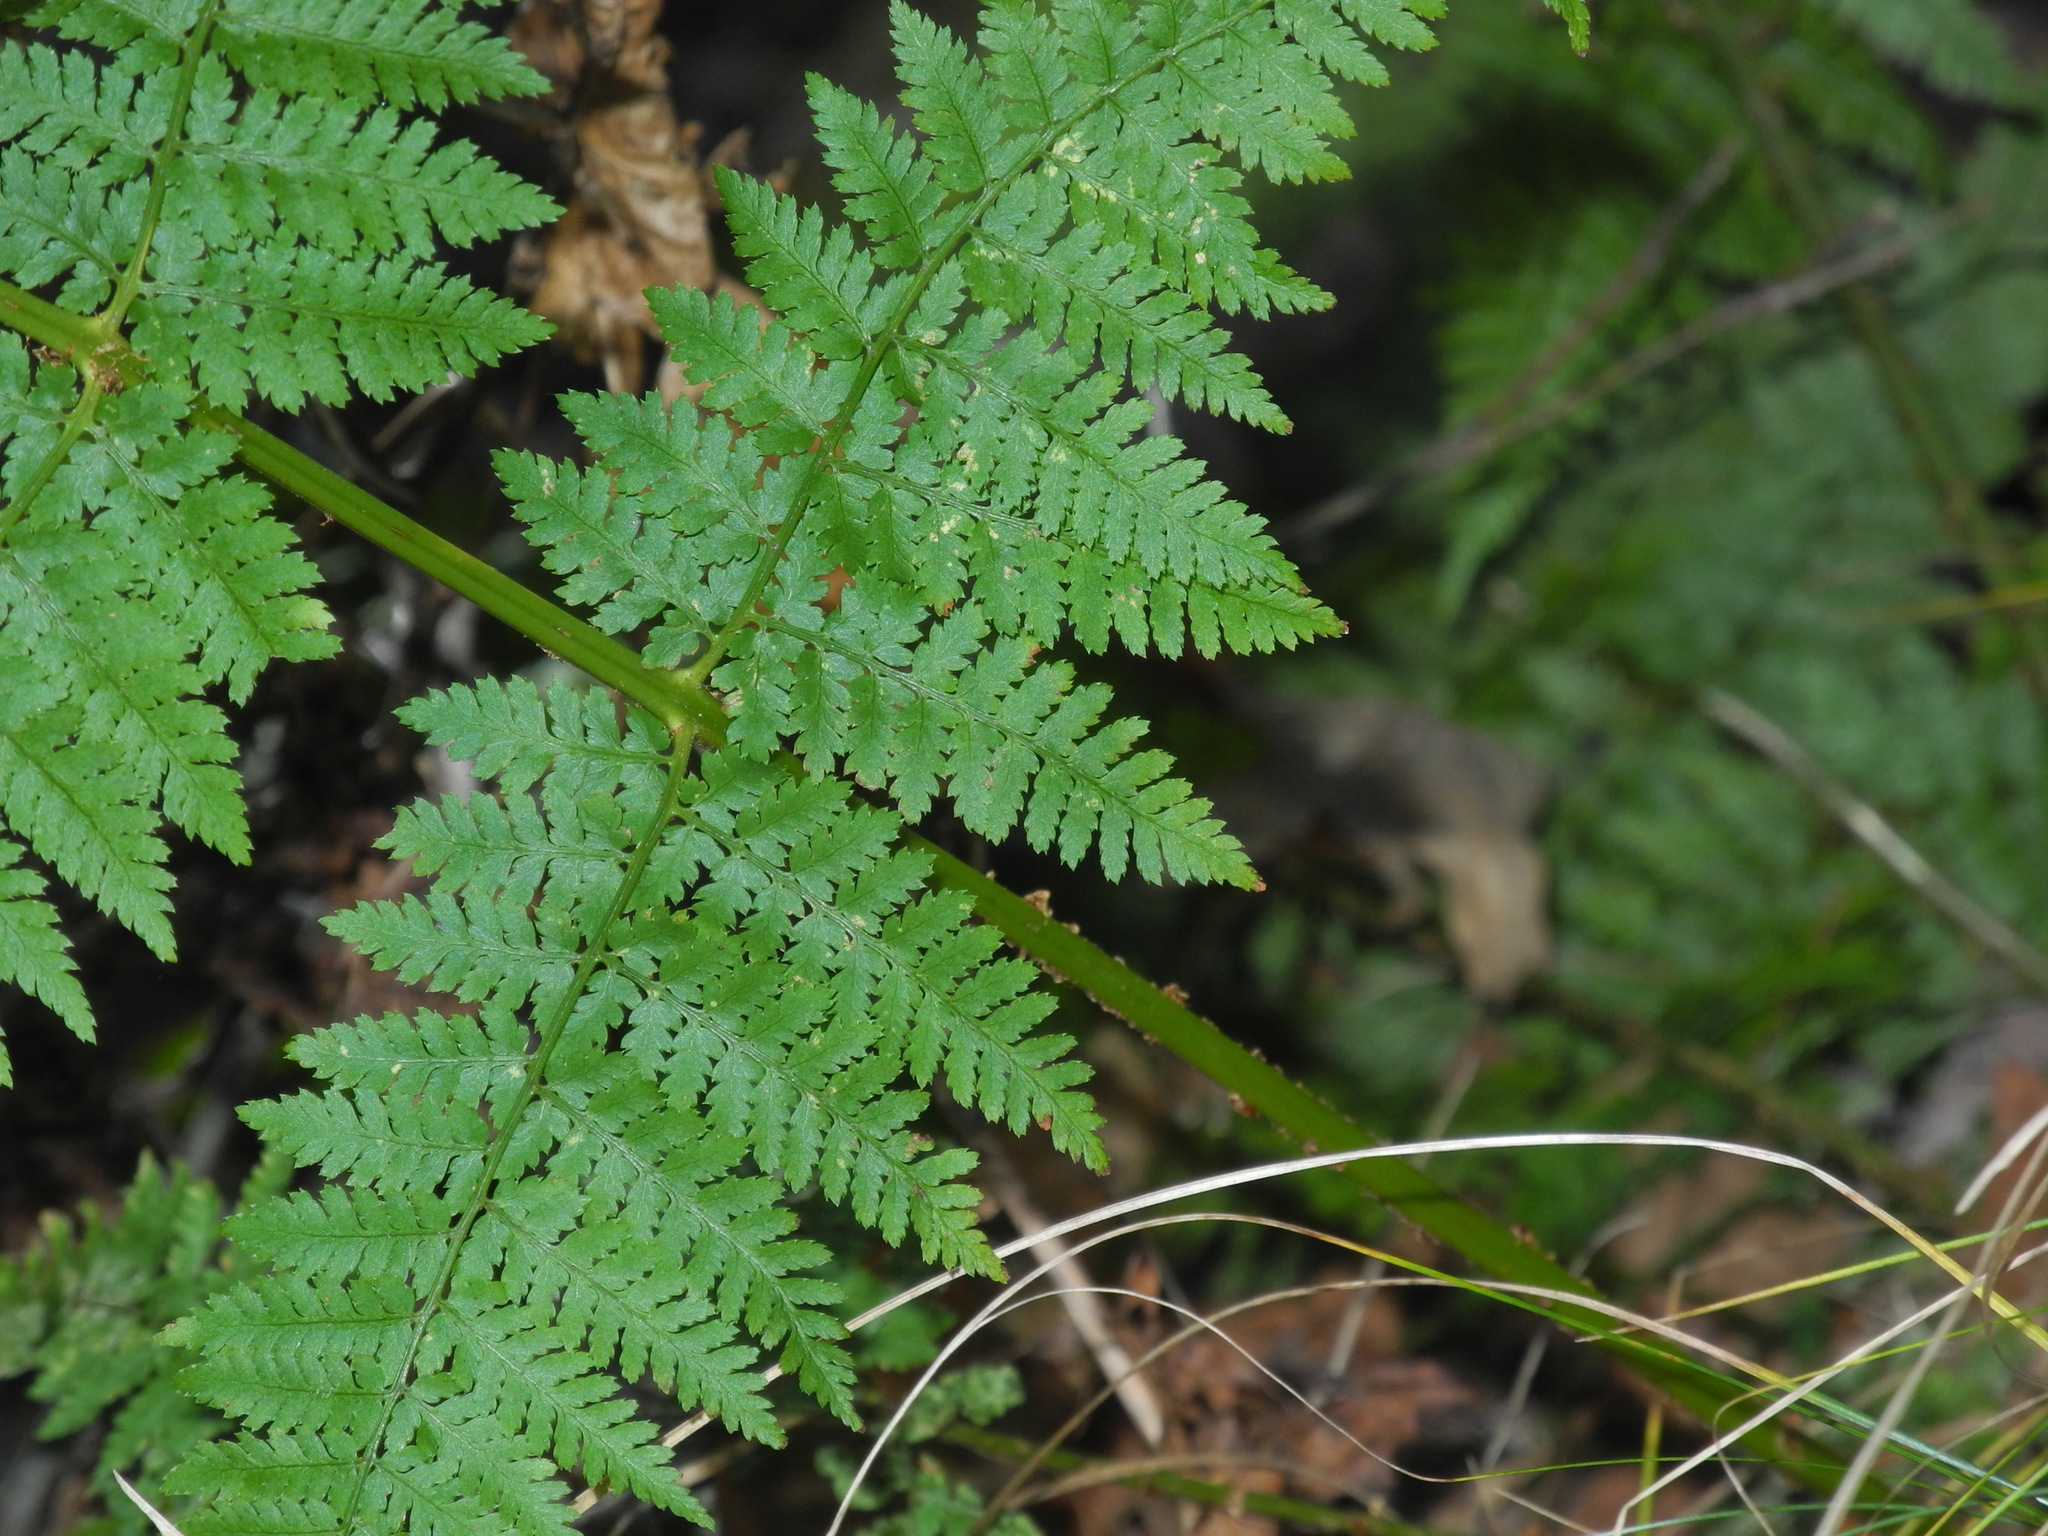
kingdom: Plantae
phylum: Tracheophyta
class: Polypodiopsida
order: Polypodiales
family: Dryopteridaceae
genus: Dryopteris
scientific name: Dryopteris intermedia
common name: Evergreen wood fern
